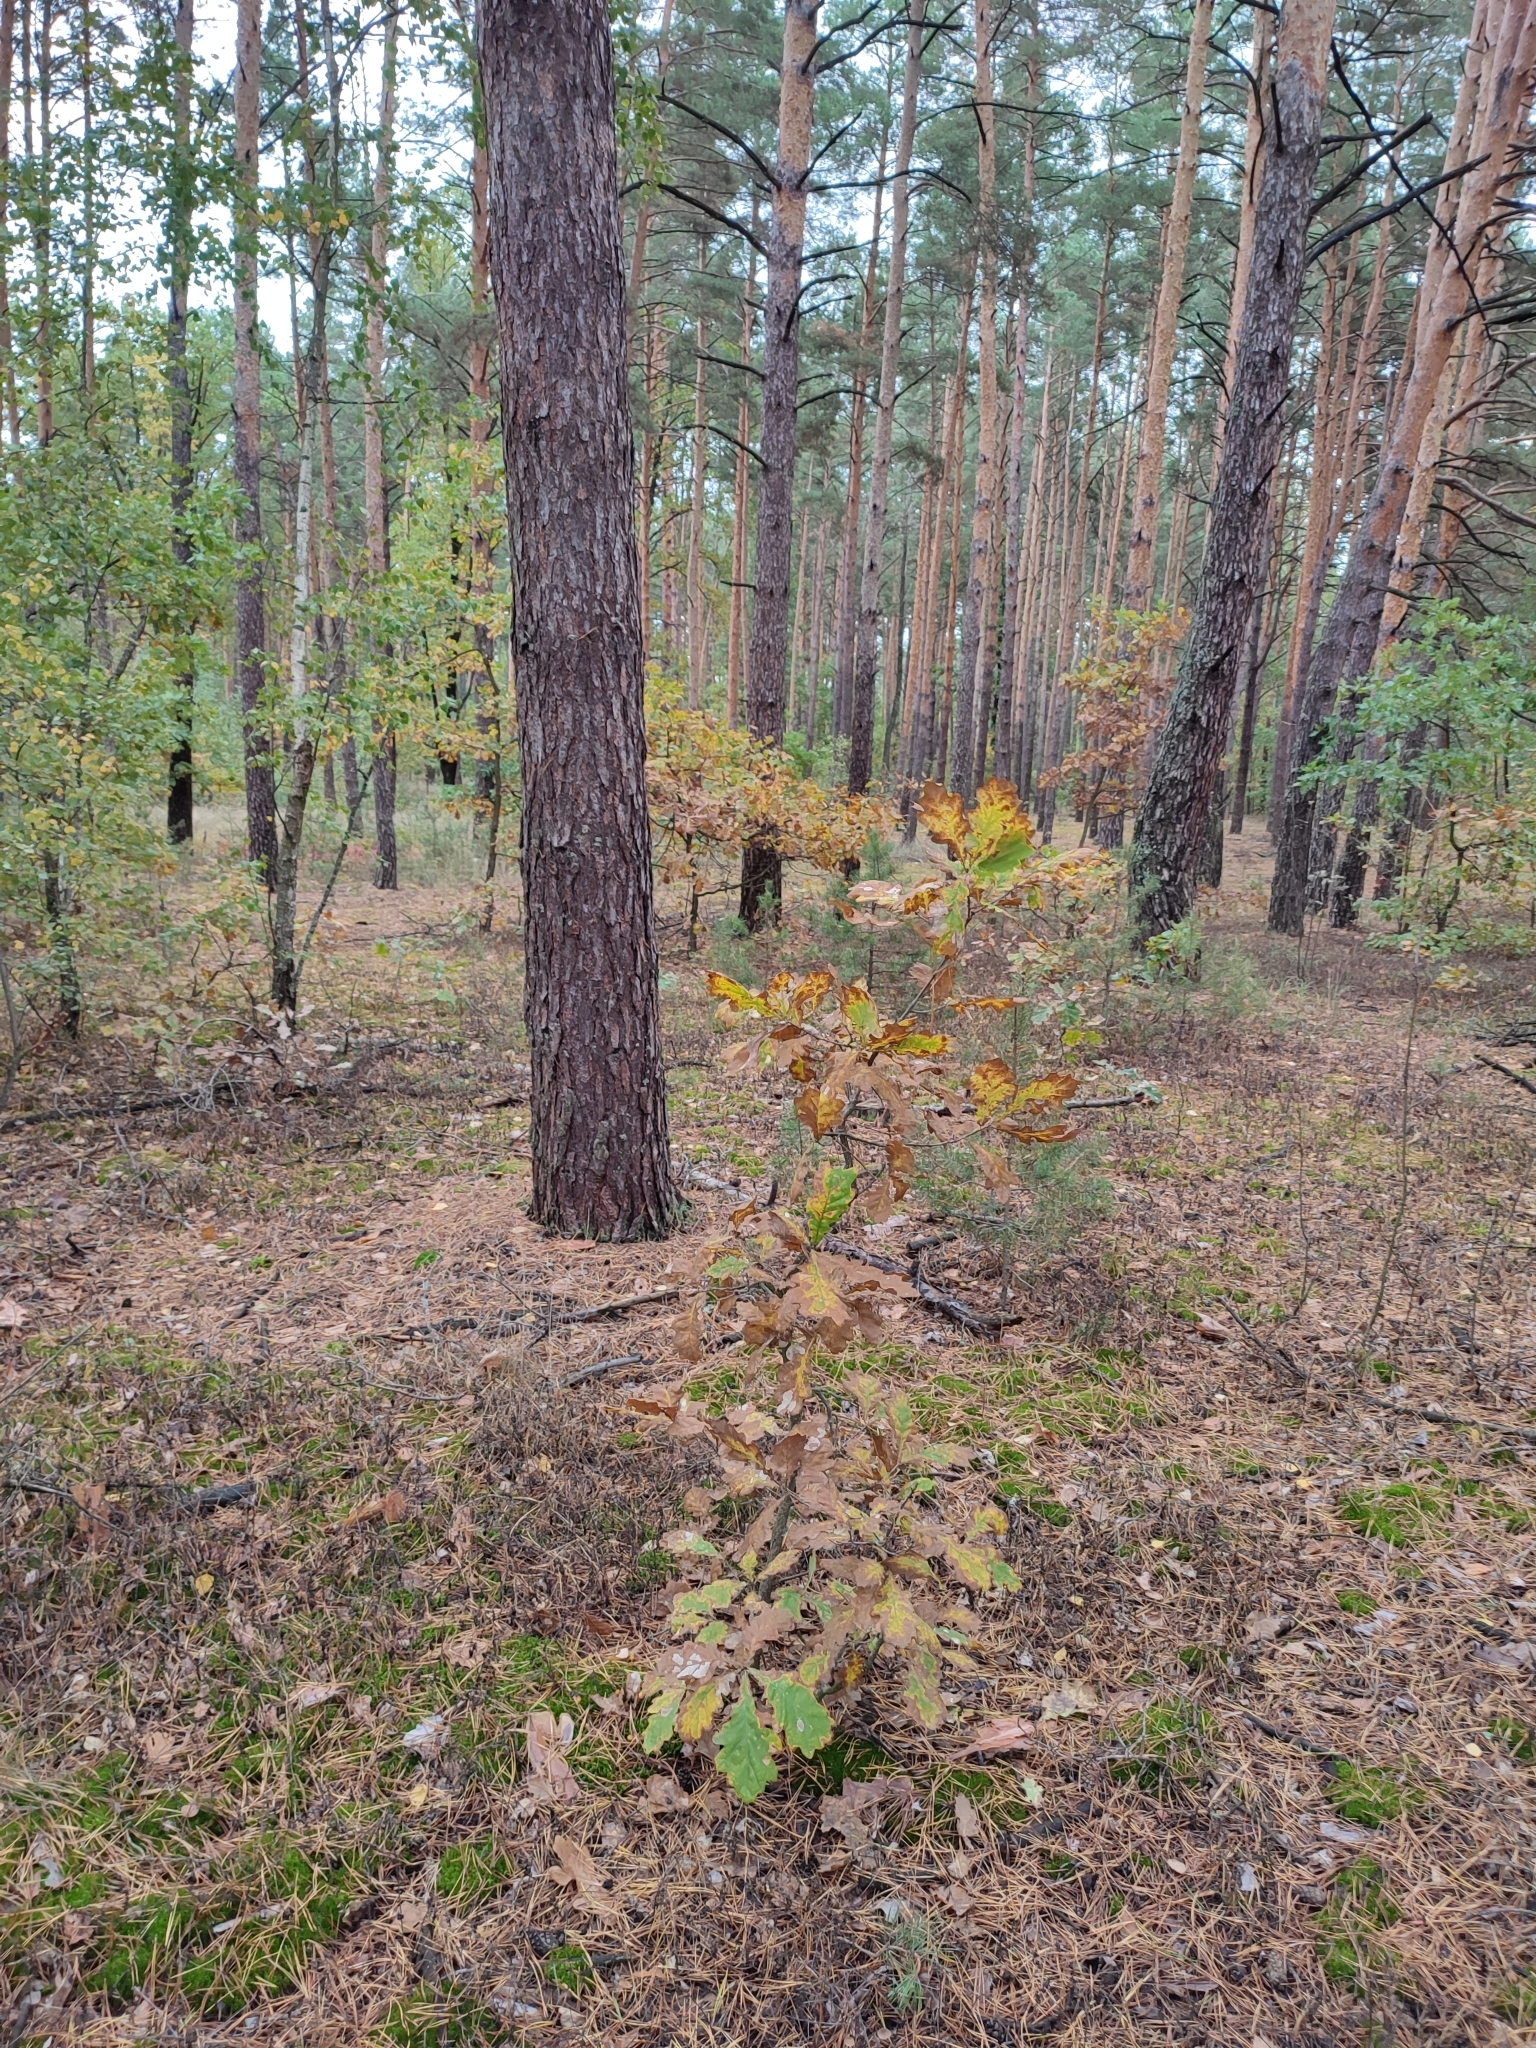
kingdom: Plantae
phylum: Tracheophyta
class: Magnoliopsida
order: Fagales
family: Fagaceae
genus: Quercus
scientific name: Quercus robur
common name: Pedunculate oak
